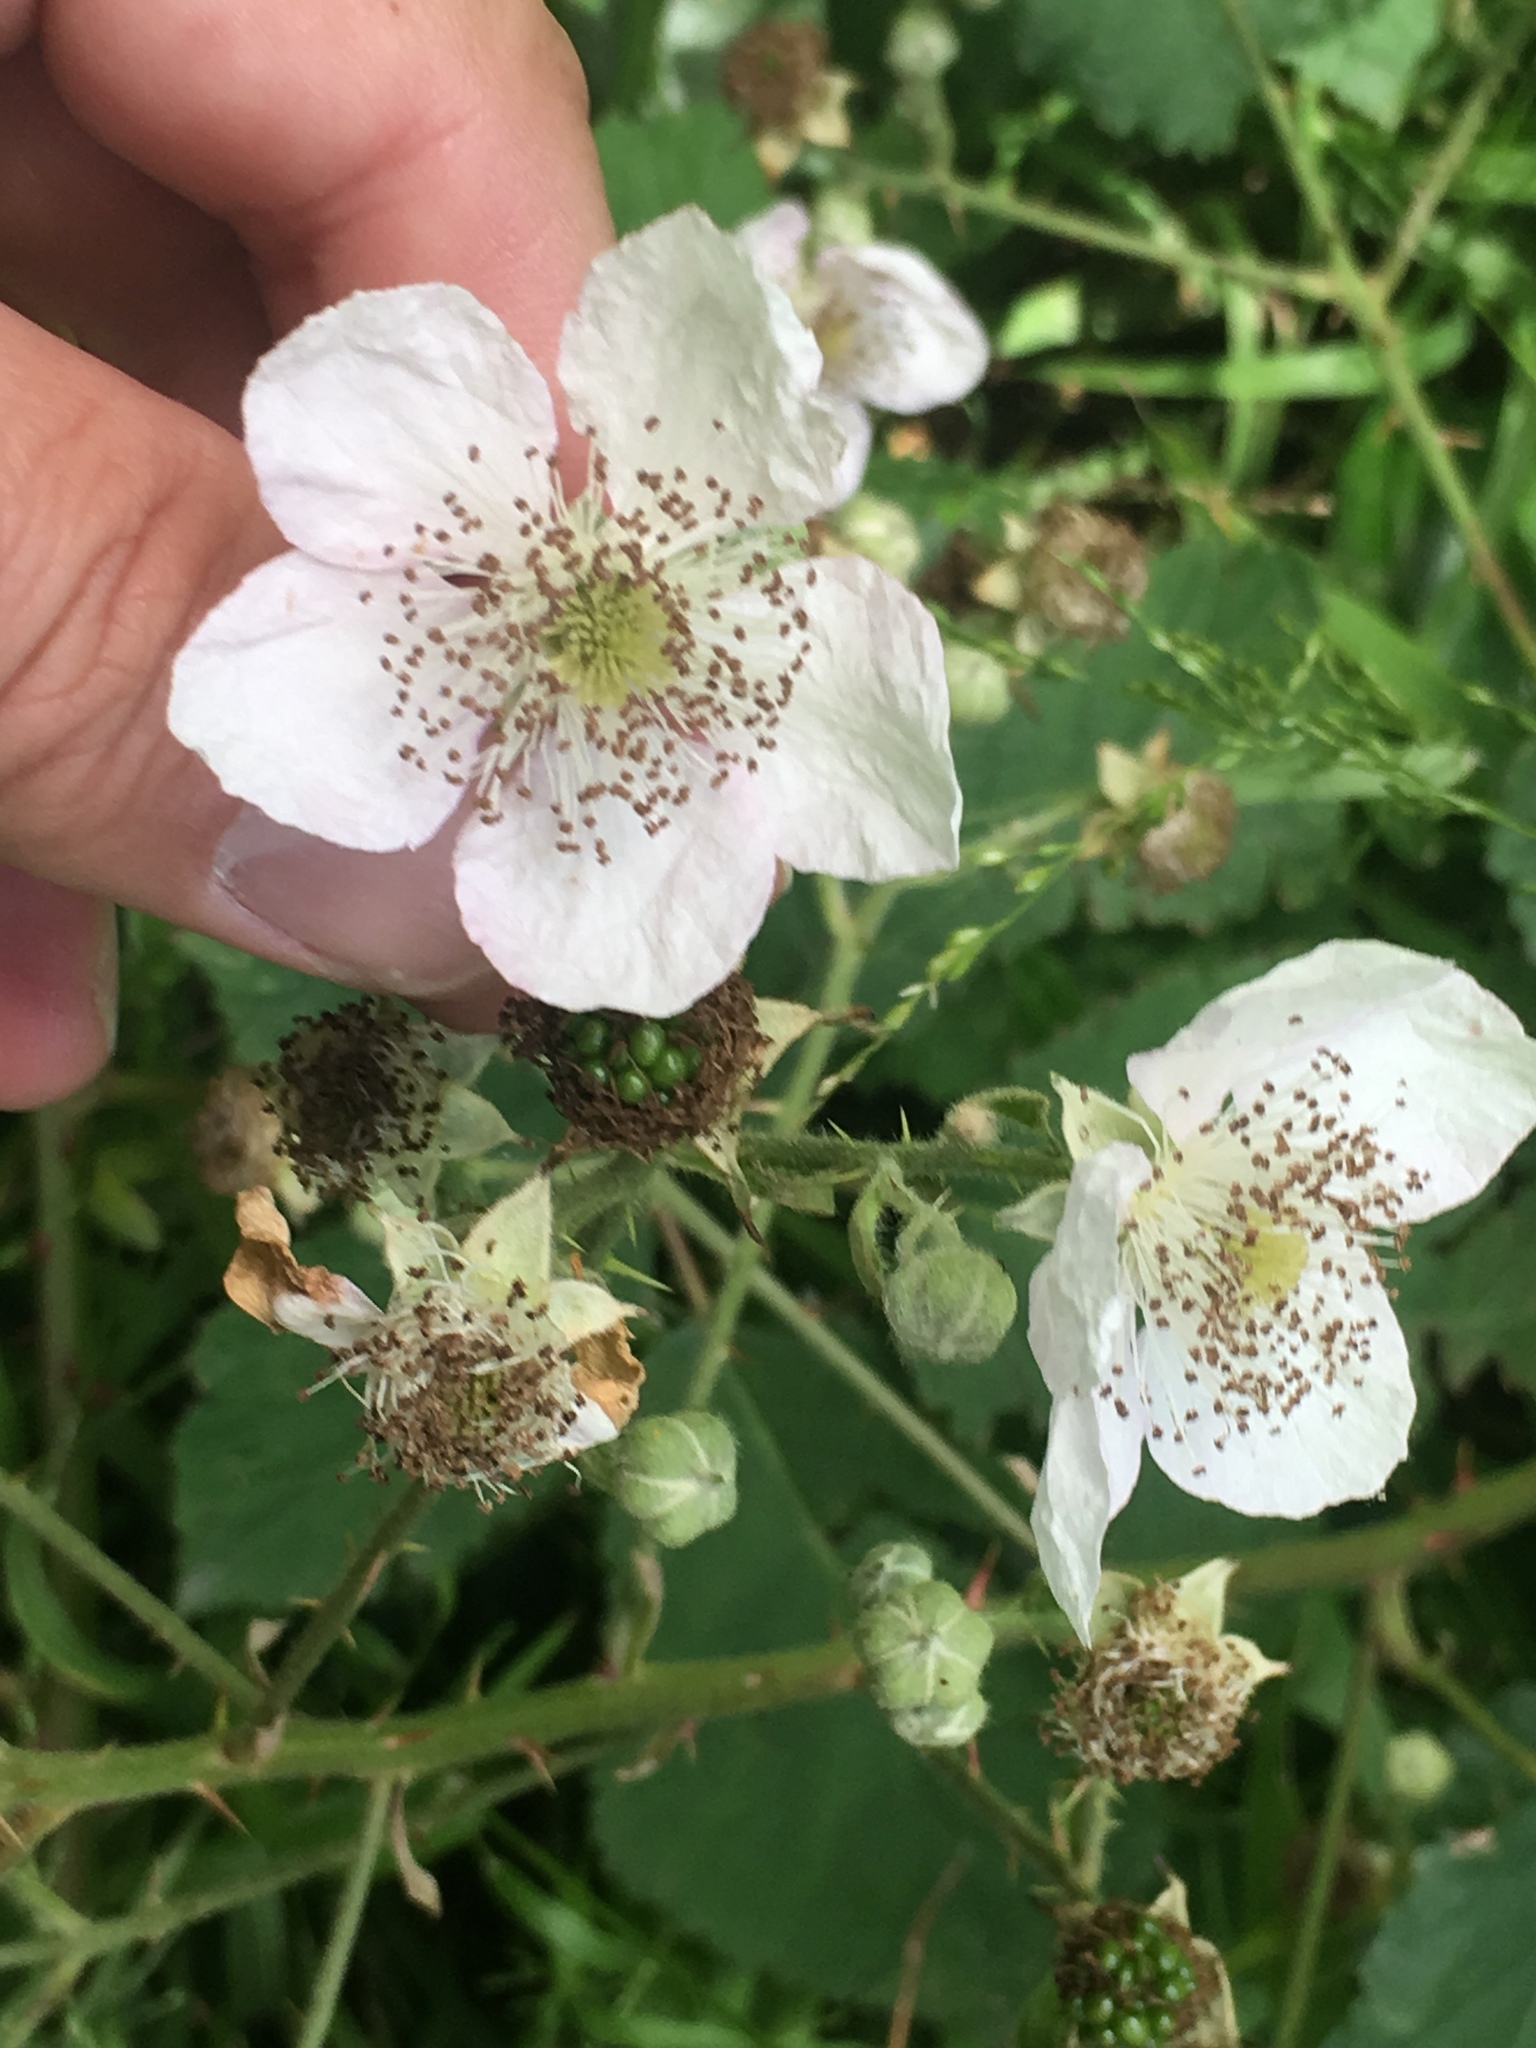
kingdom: Plantae
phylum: Tracheophyta
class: Magnoliopsida
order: Rosales
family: Rosaceae
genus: Rubus
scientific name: Rubus armeniacus
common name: Himalayan blackberry
